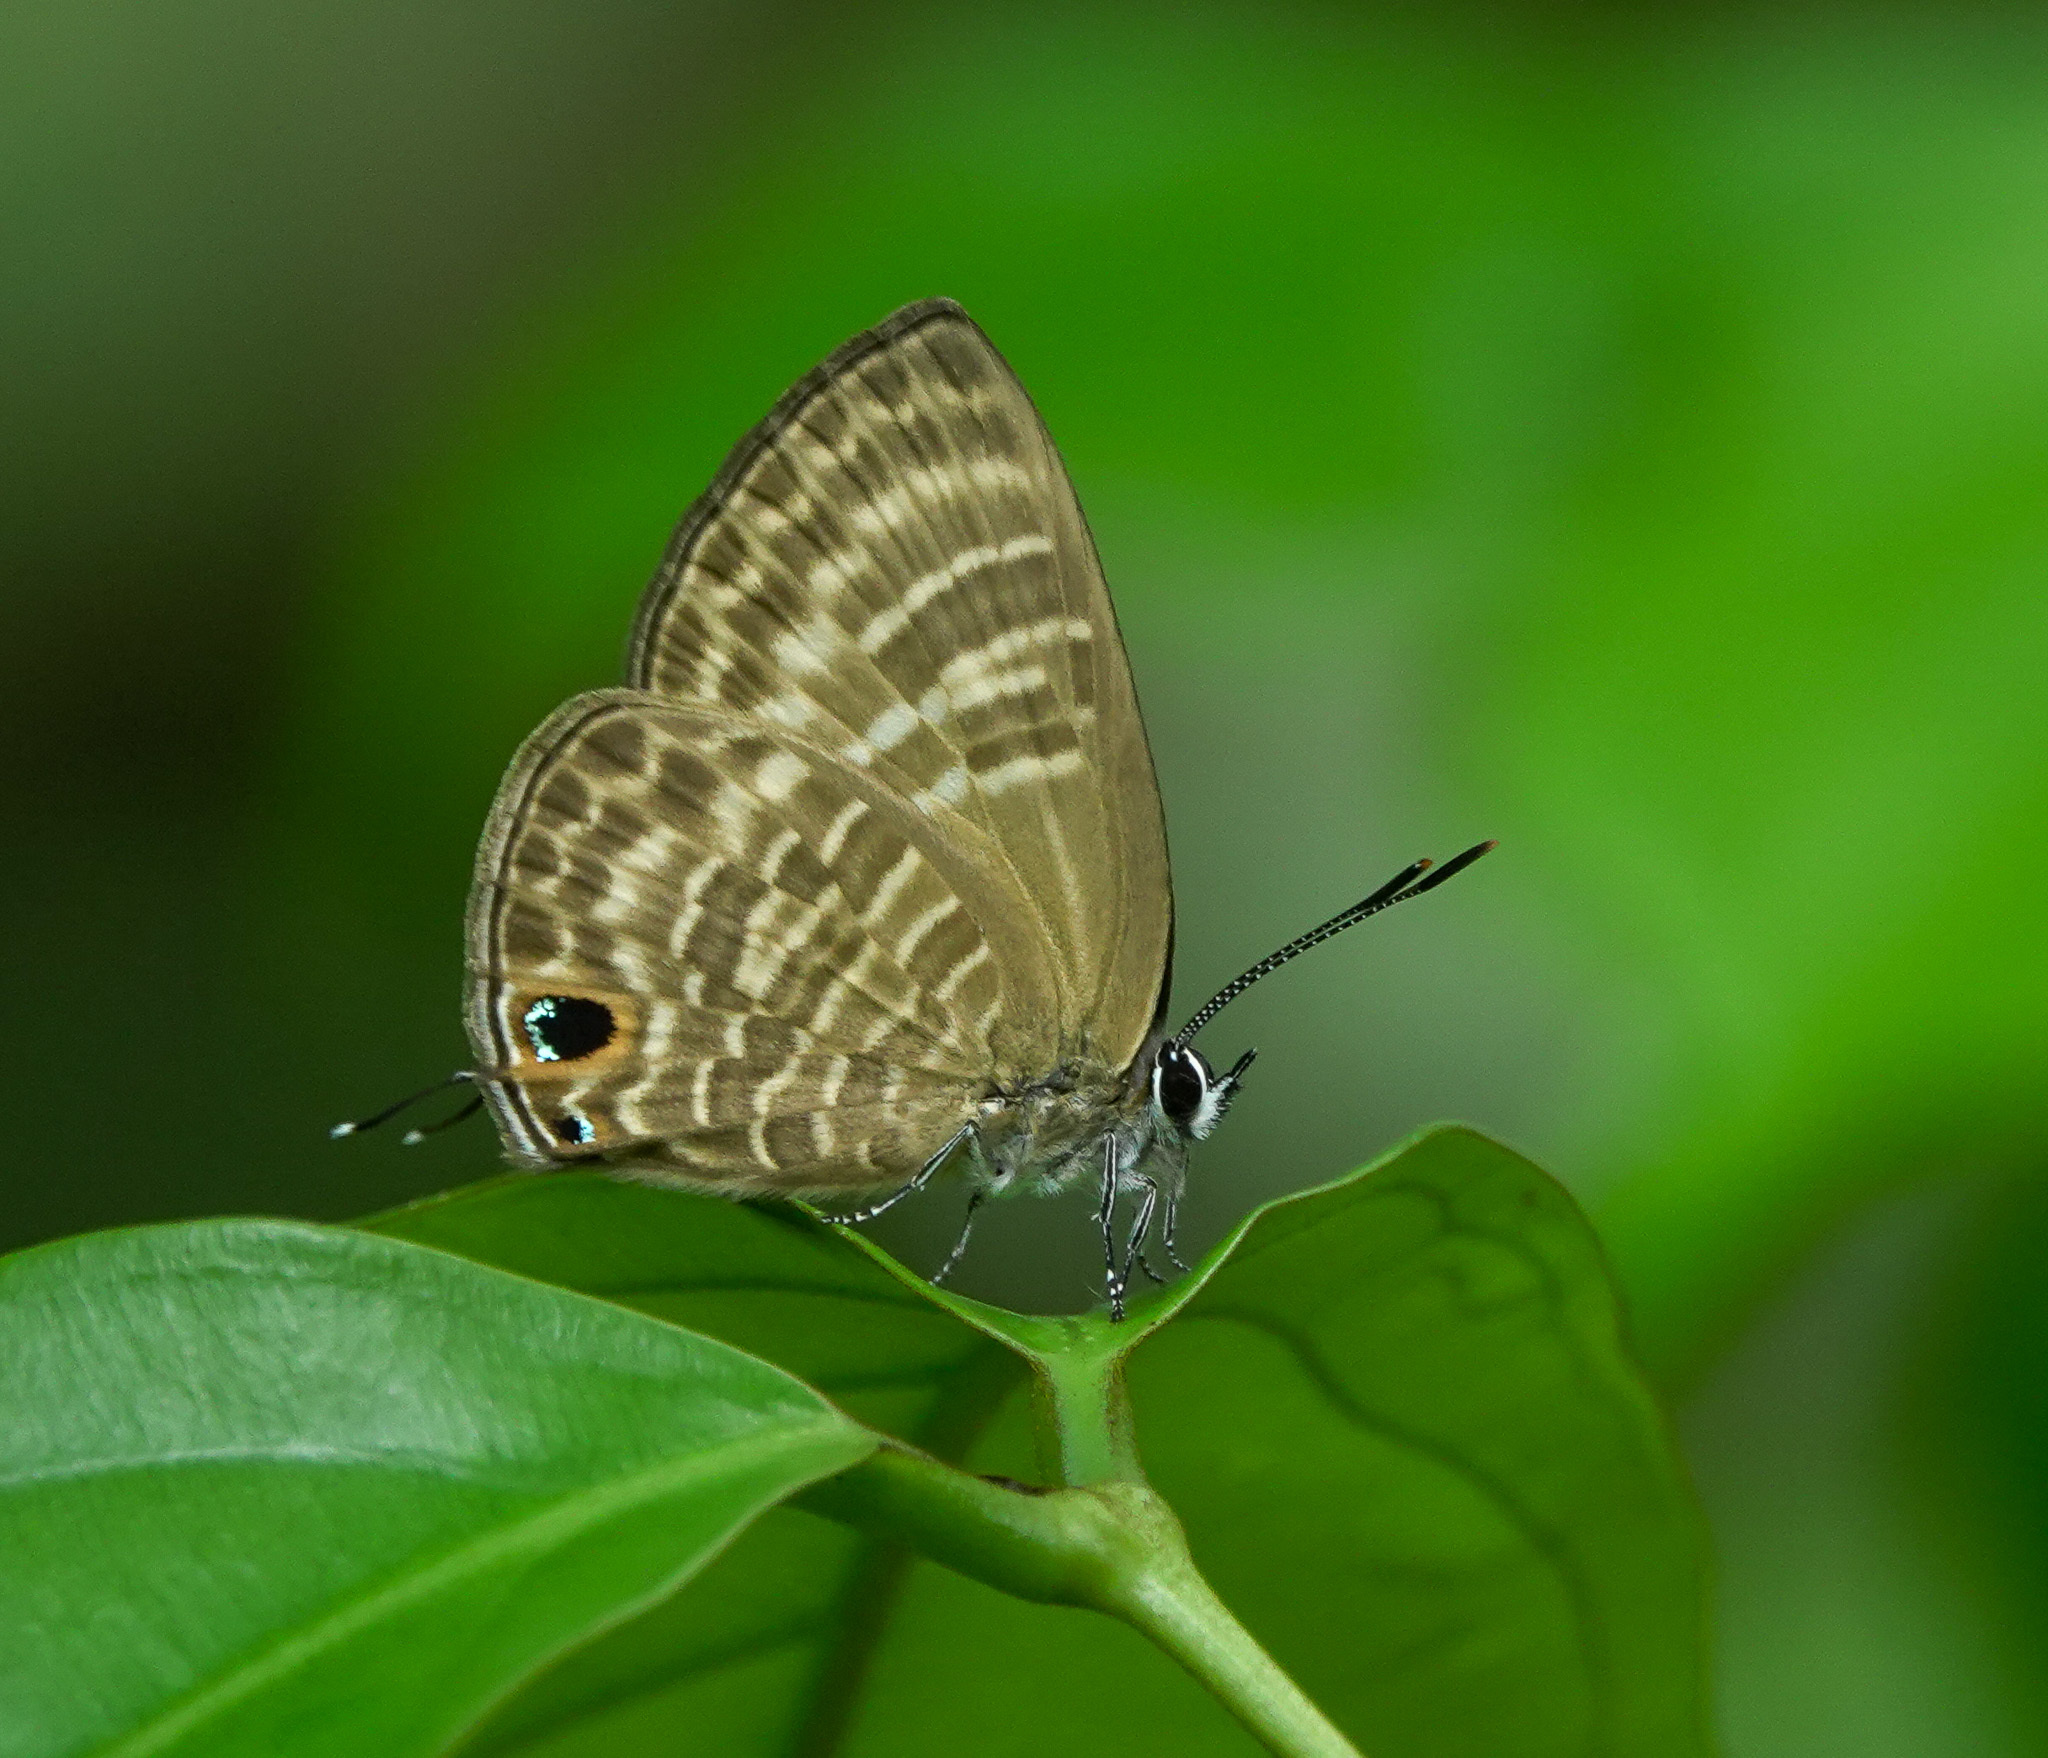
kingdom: Animalia
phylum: Arthropoda
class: Insecta
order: Lepidoptera
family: Lycaenidae
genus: Nacaduba
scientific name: Nacaduba pactolus
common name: Large fourline blue
